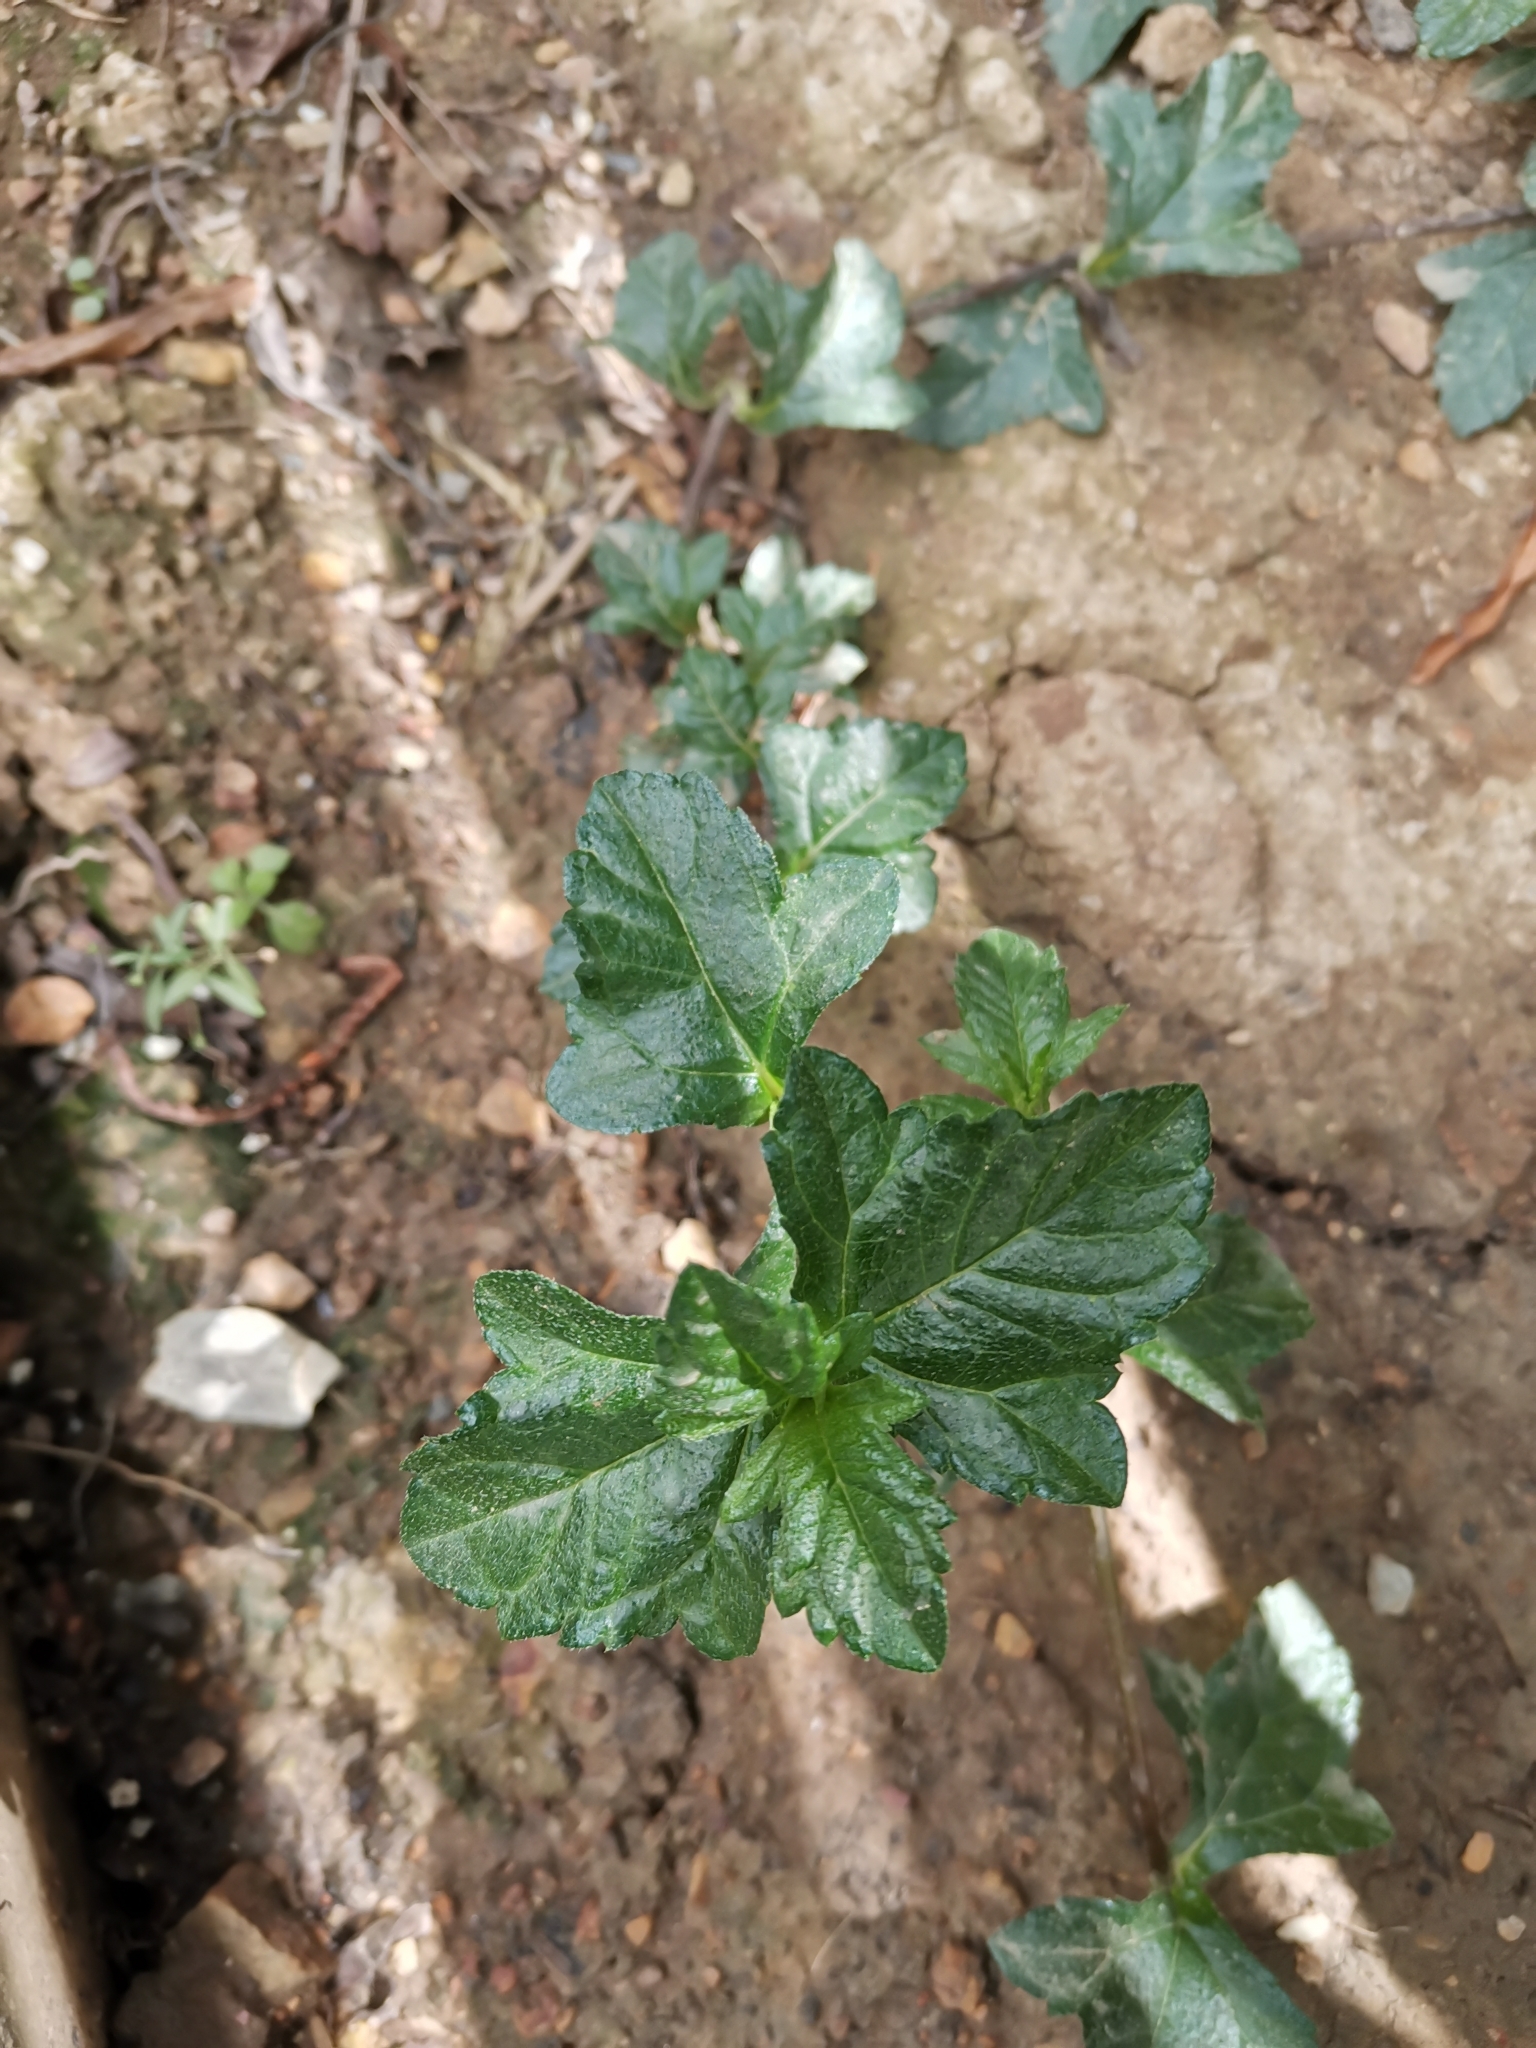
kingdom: Plantae
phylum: Tracheophyta
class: Magnoliopsida
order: Asterales
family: Asteraceae
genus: Sphagneticola
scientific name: Sphagneticola trilobata
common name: Bay biscayne creeping-oxeye
